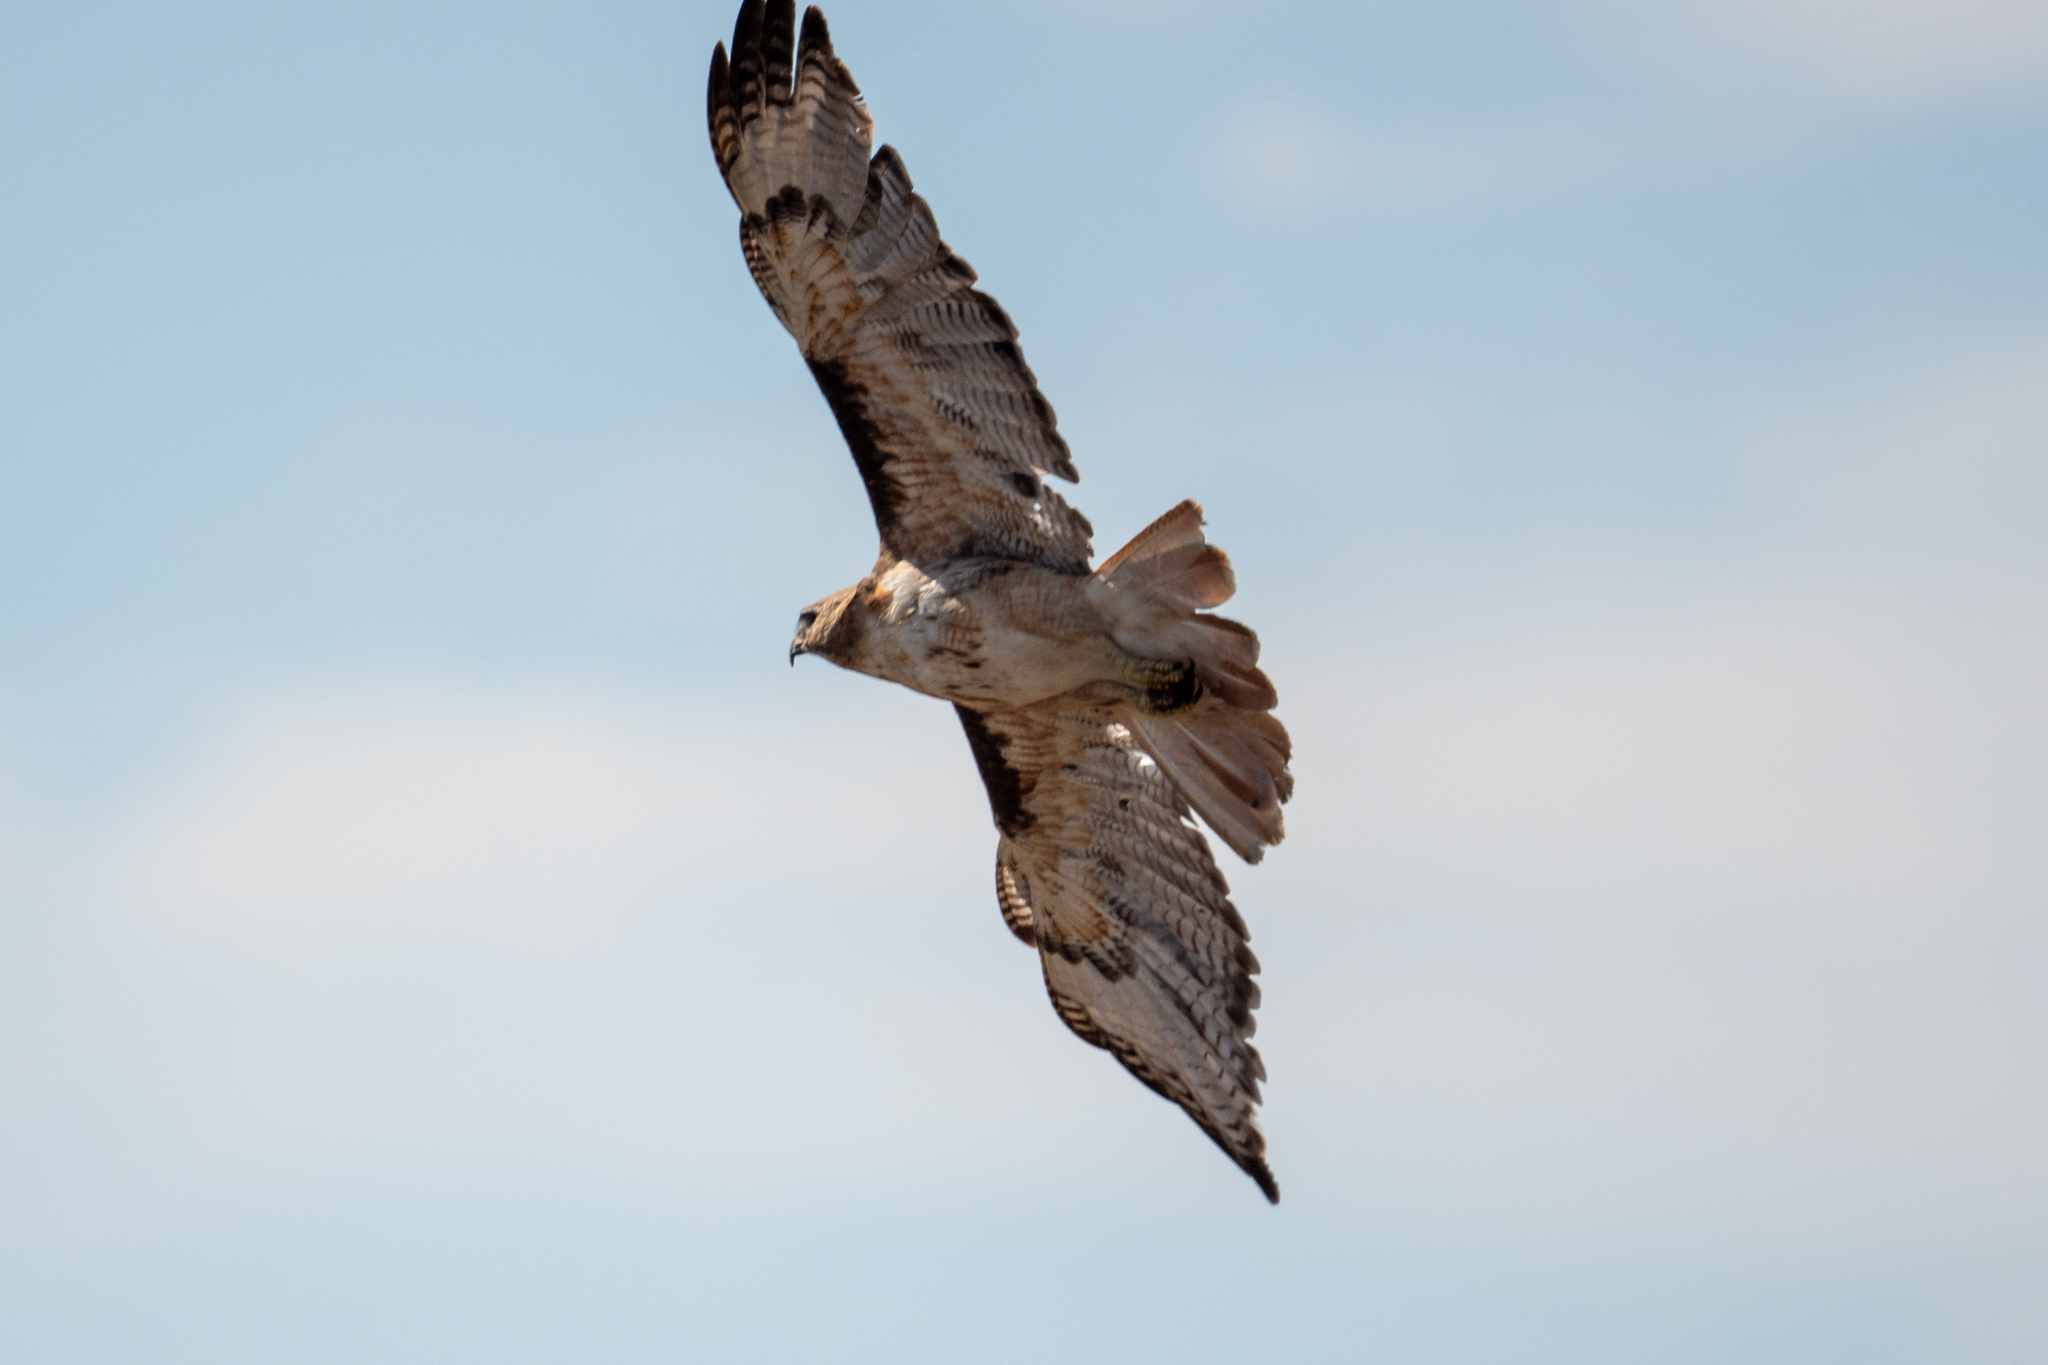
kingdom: Animalia
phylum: Chordata
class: Aves
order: Accipitriformes
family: Accipitridae
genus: Buteo
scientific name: Buteo jamaicensis
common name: Red-tailed hawk
